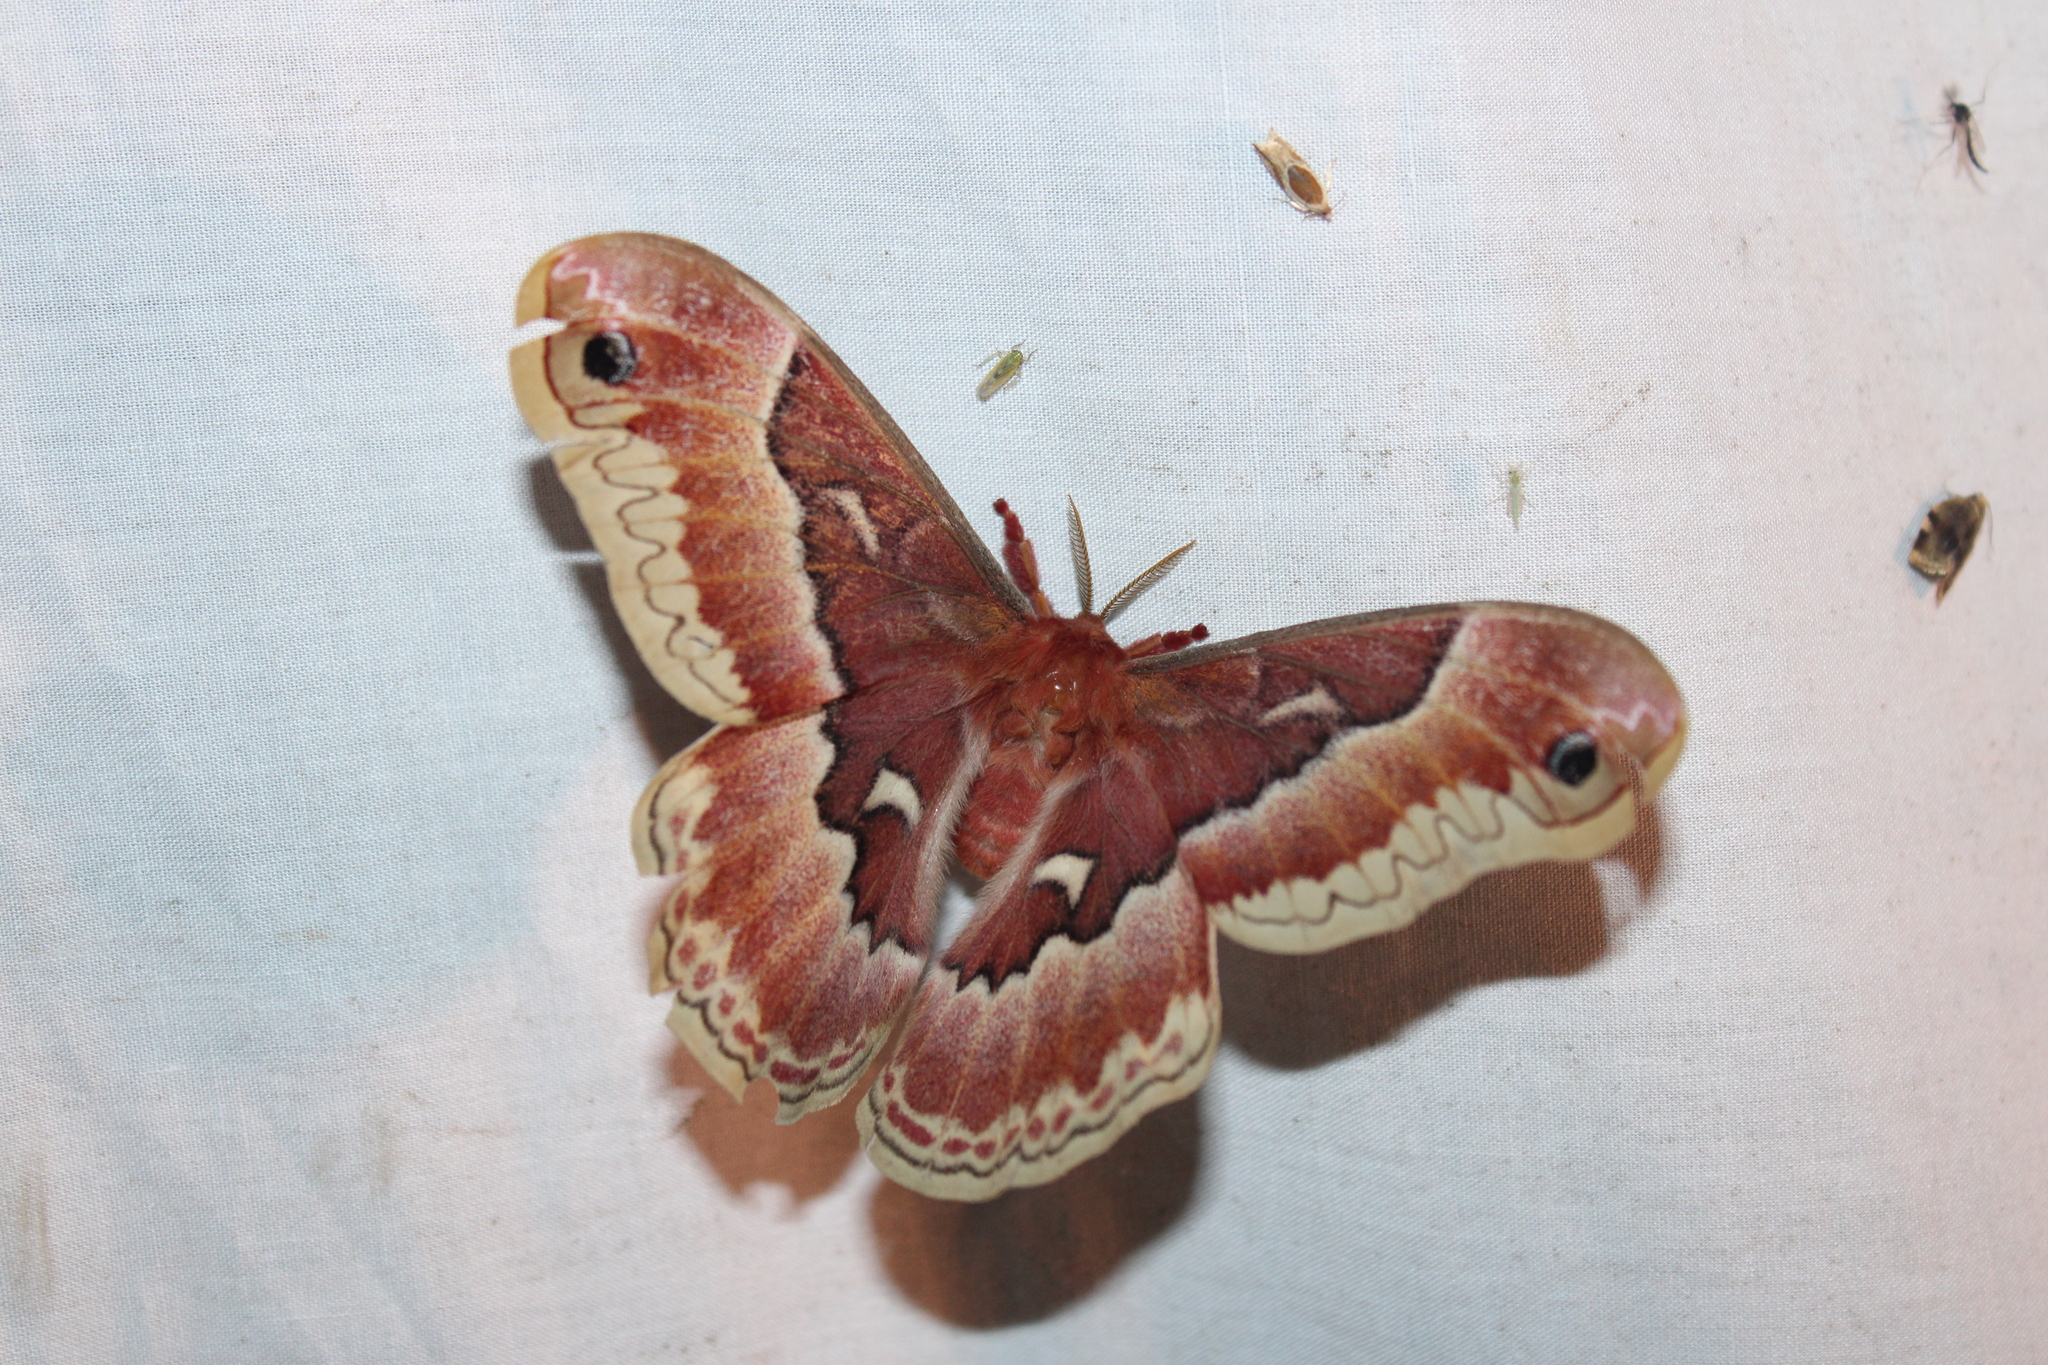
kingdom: Animalia
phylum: Arthropoda
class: Insecta
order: Lepidoptera
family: Saturniidae
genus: Callosamia
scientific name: Callosamia promethea
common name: Promethea silkmoth
